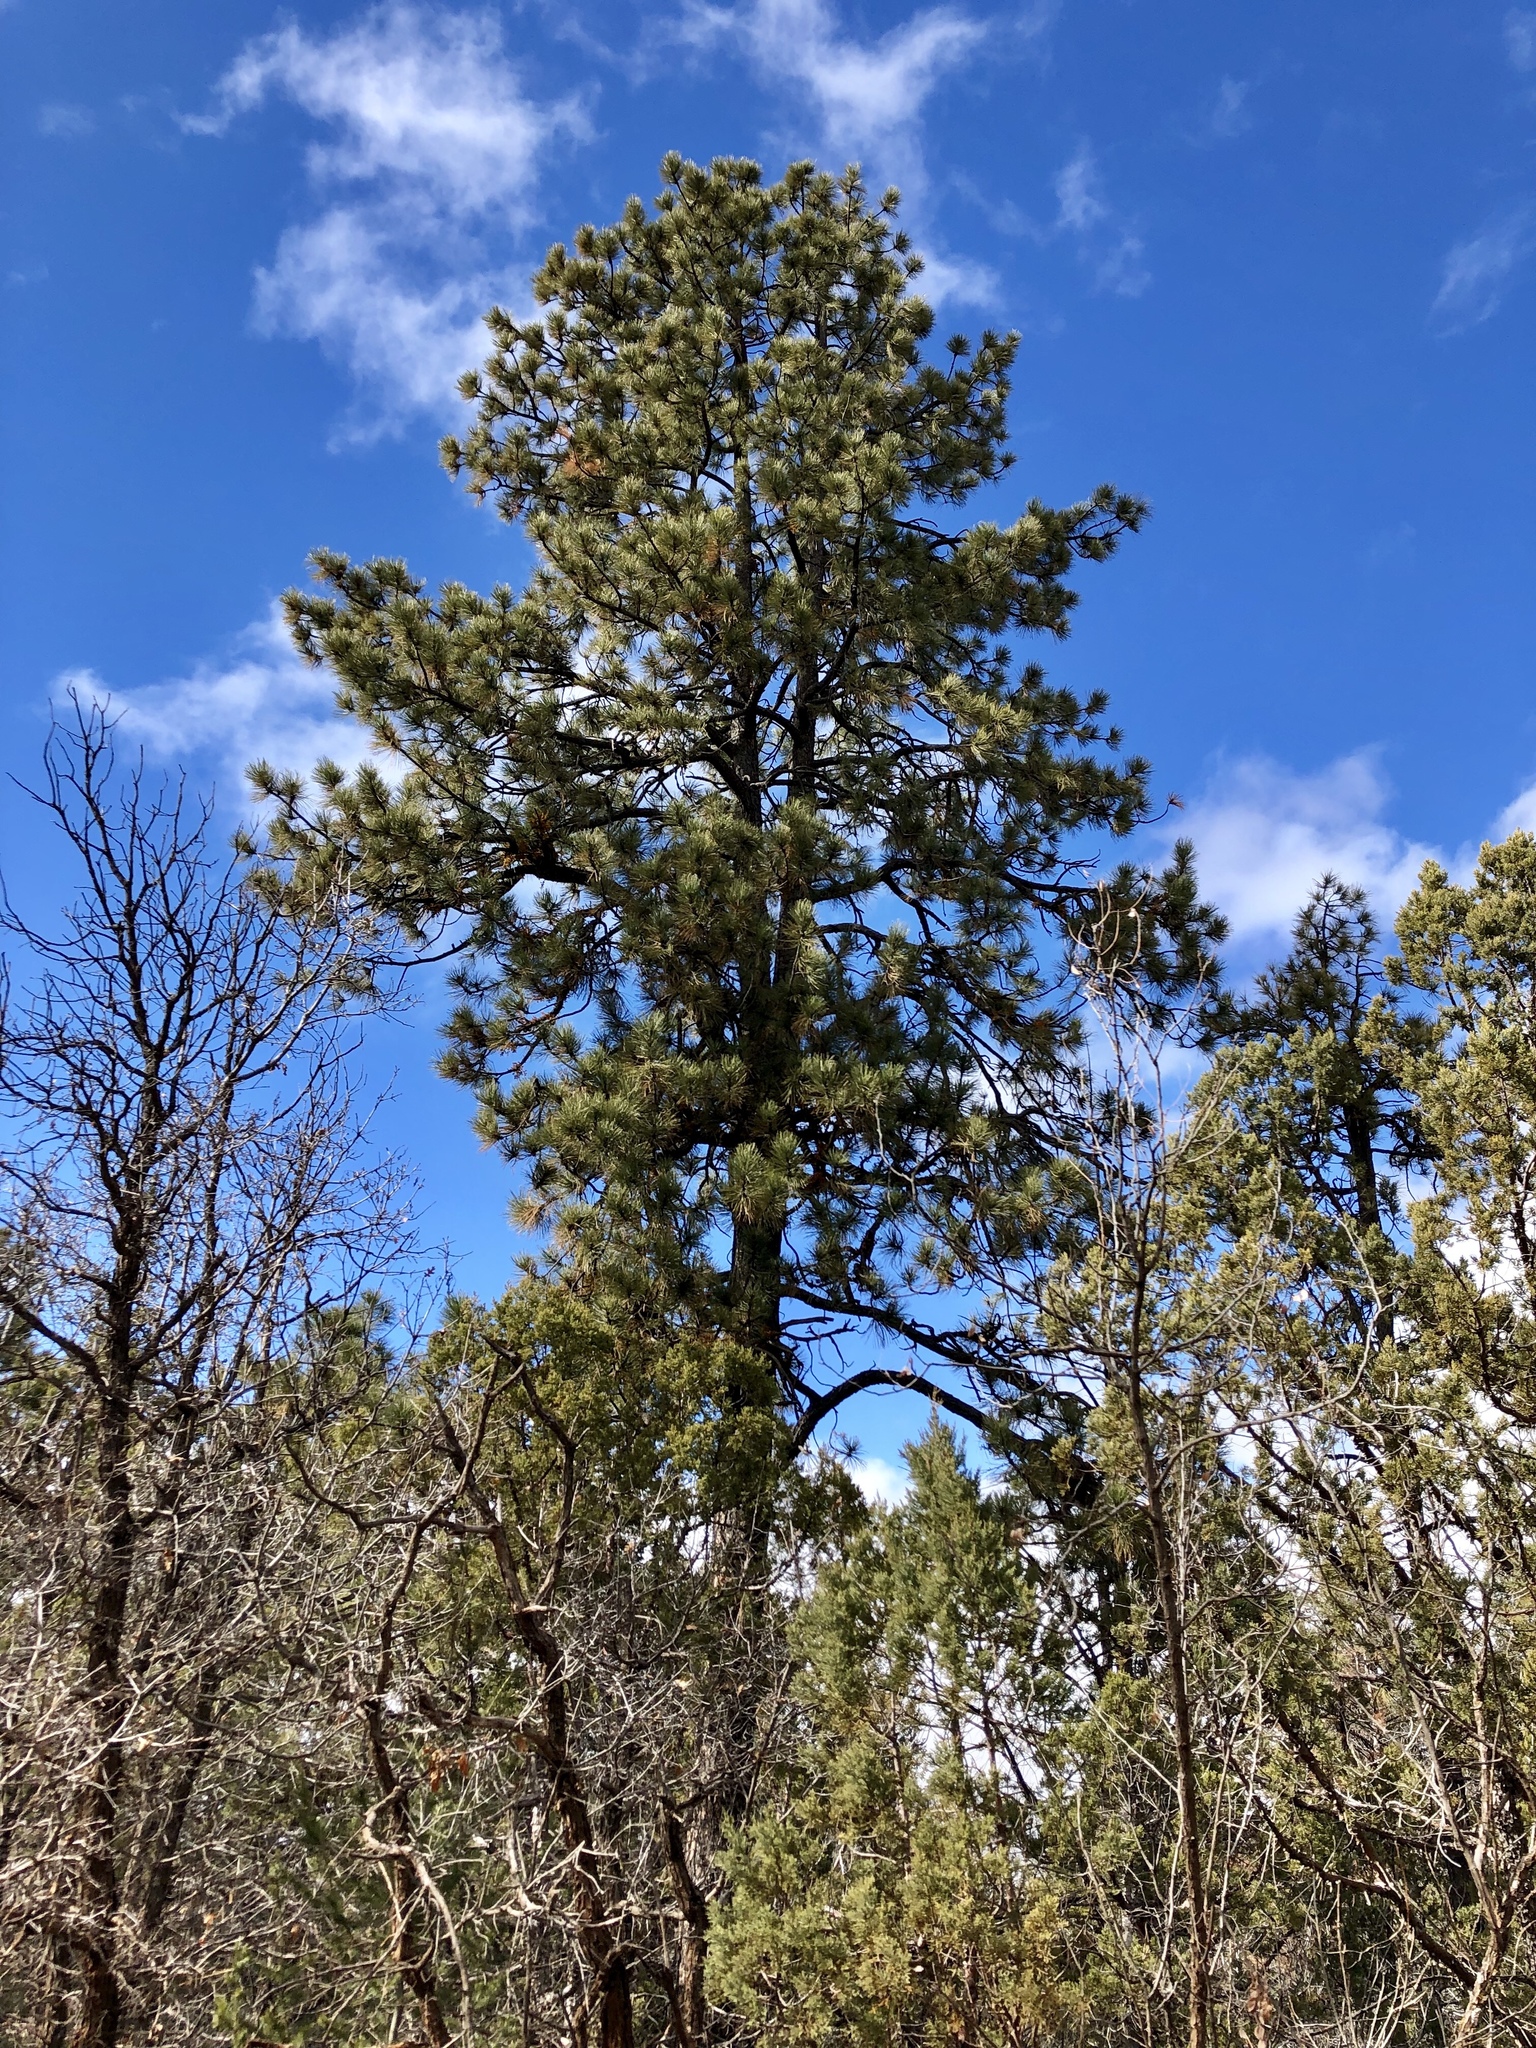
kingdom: Plantae
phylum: Tracheophyta
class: Pinopsida
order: Pinales
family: Pinaceae
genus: Pinus
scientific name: Pinus ponderosa
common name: Western yellow-pine
